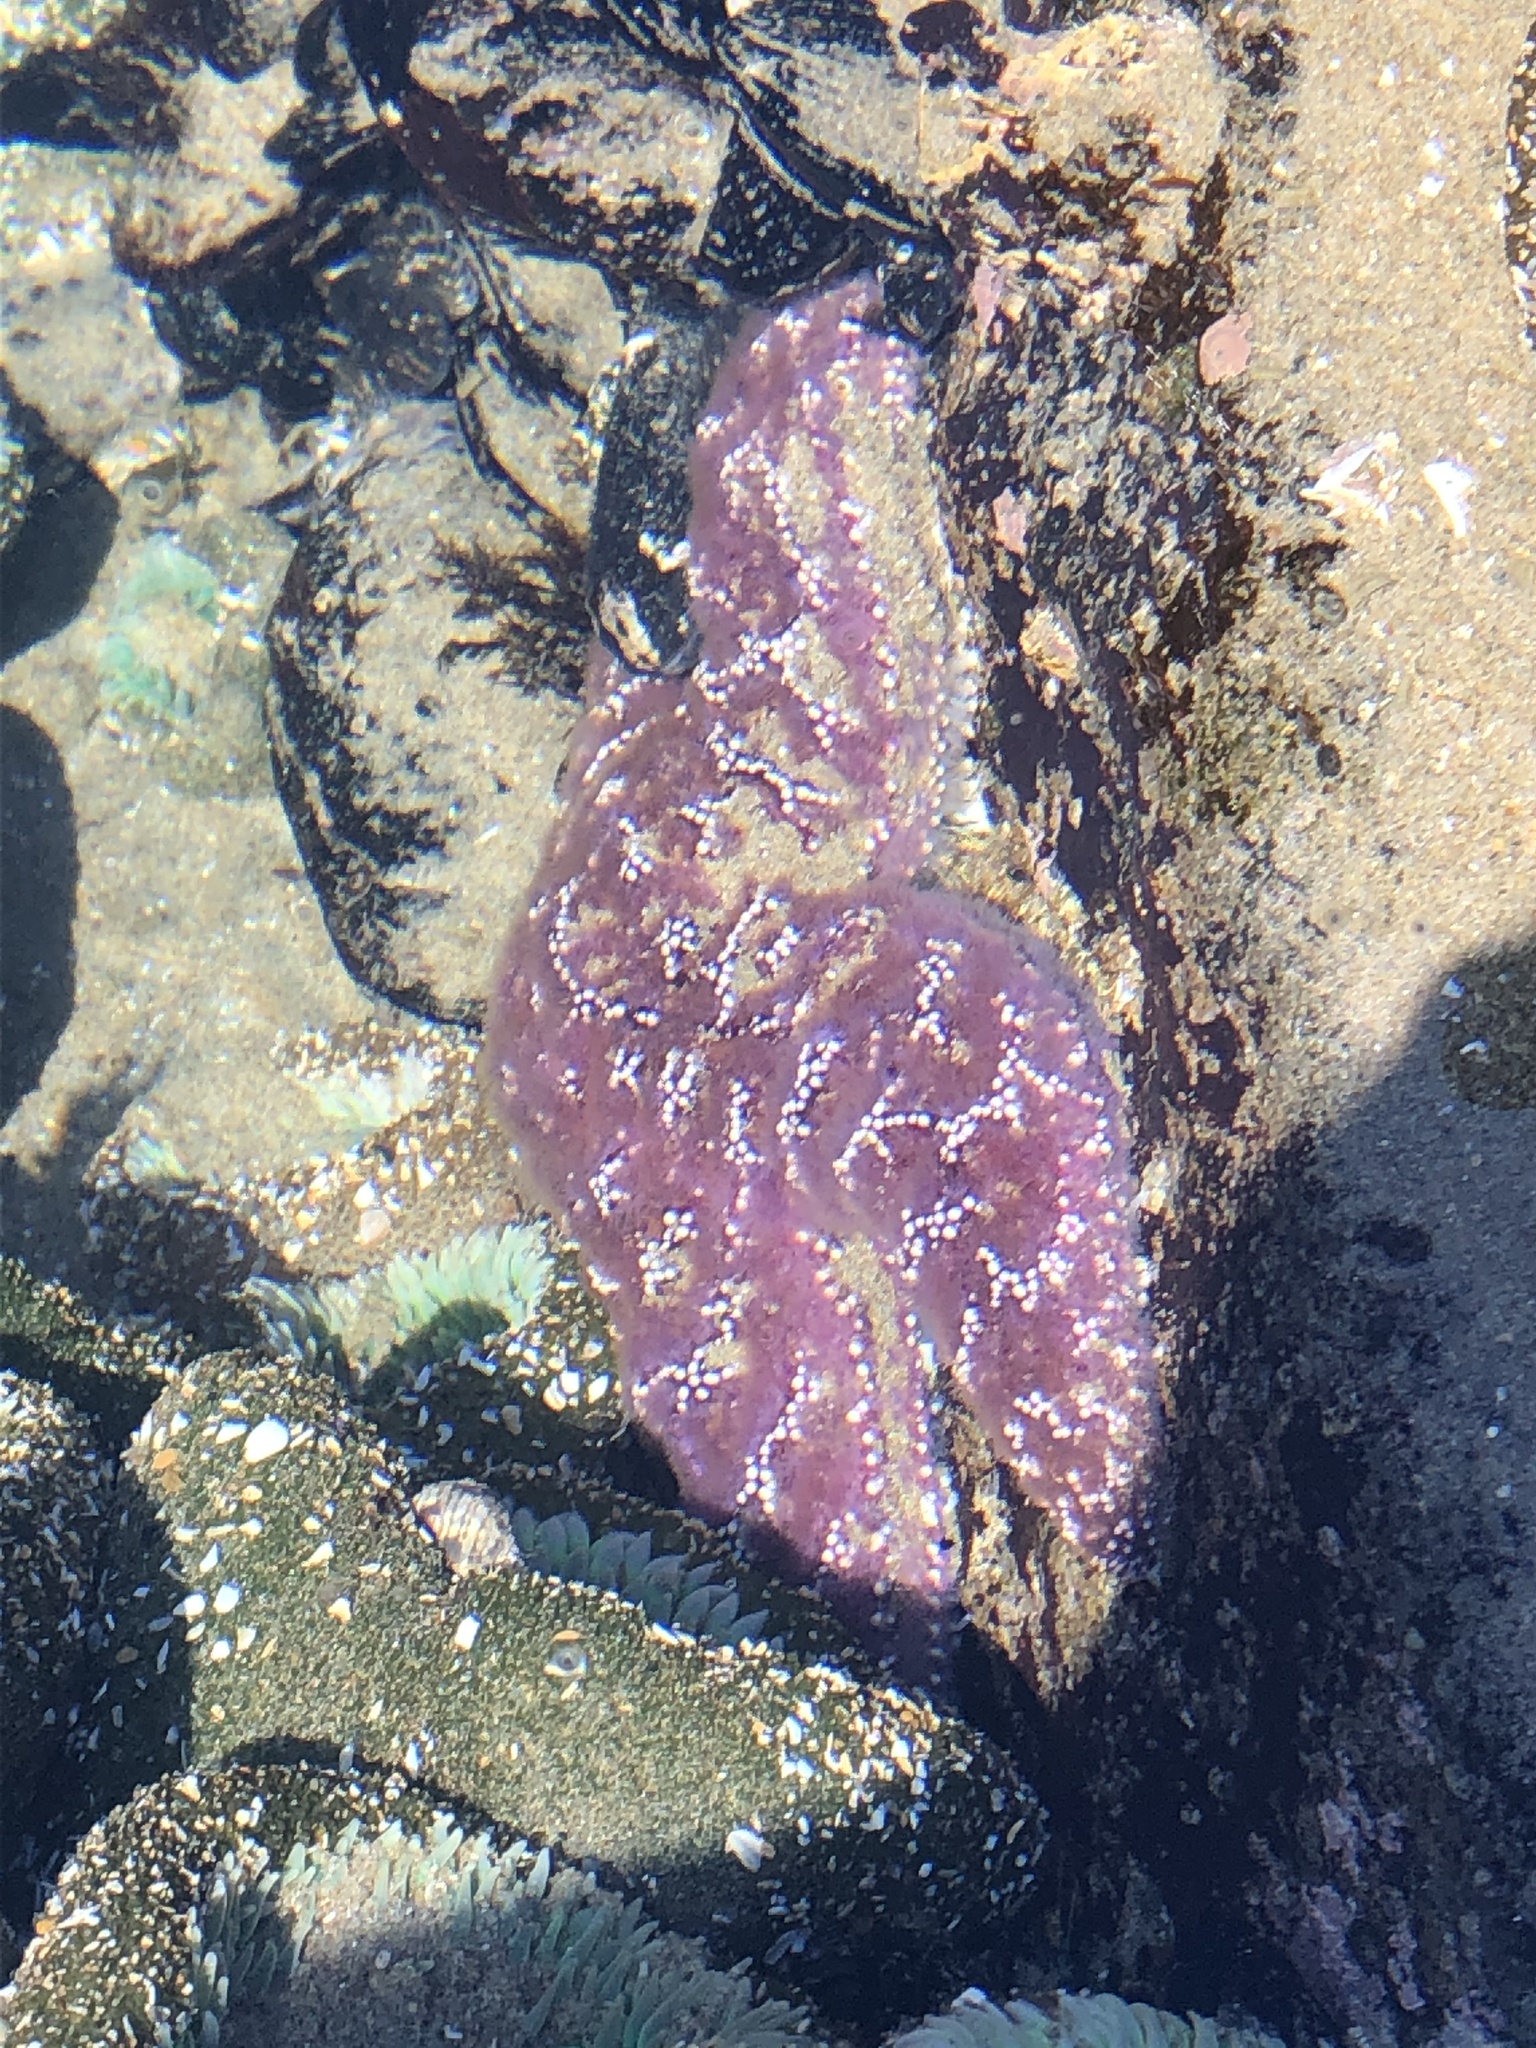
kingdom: Animalia
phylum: Echinodermata
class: Asteroidea
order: Forcipulatida
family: Asteriidae
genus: Pisaster
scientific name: Pisaster ochraceus
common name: Ochre stars
